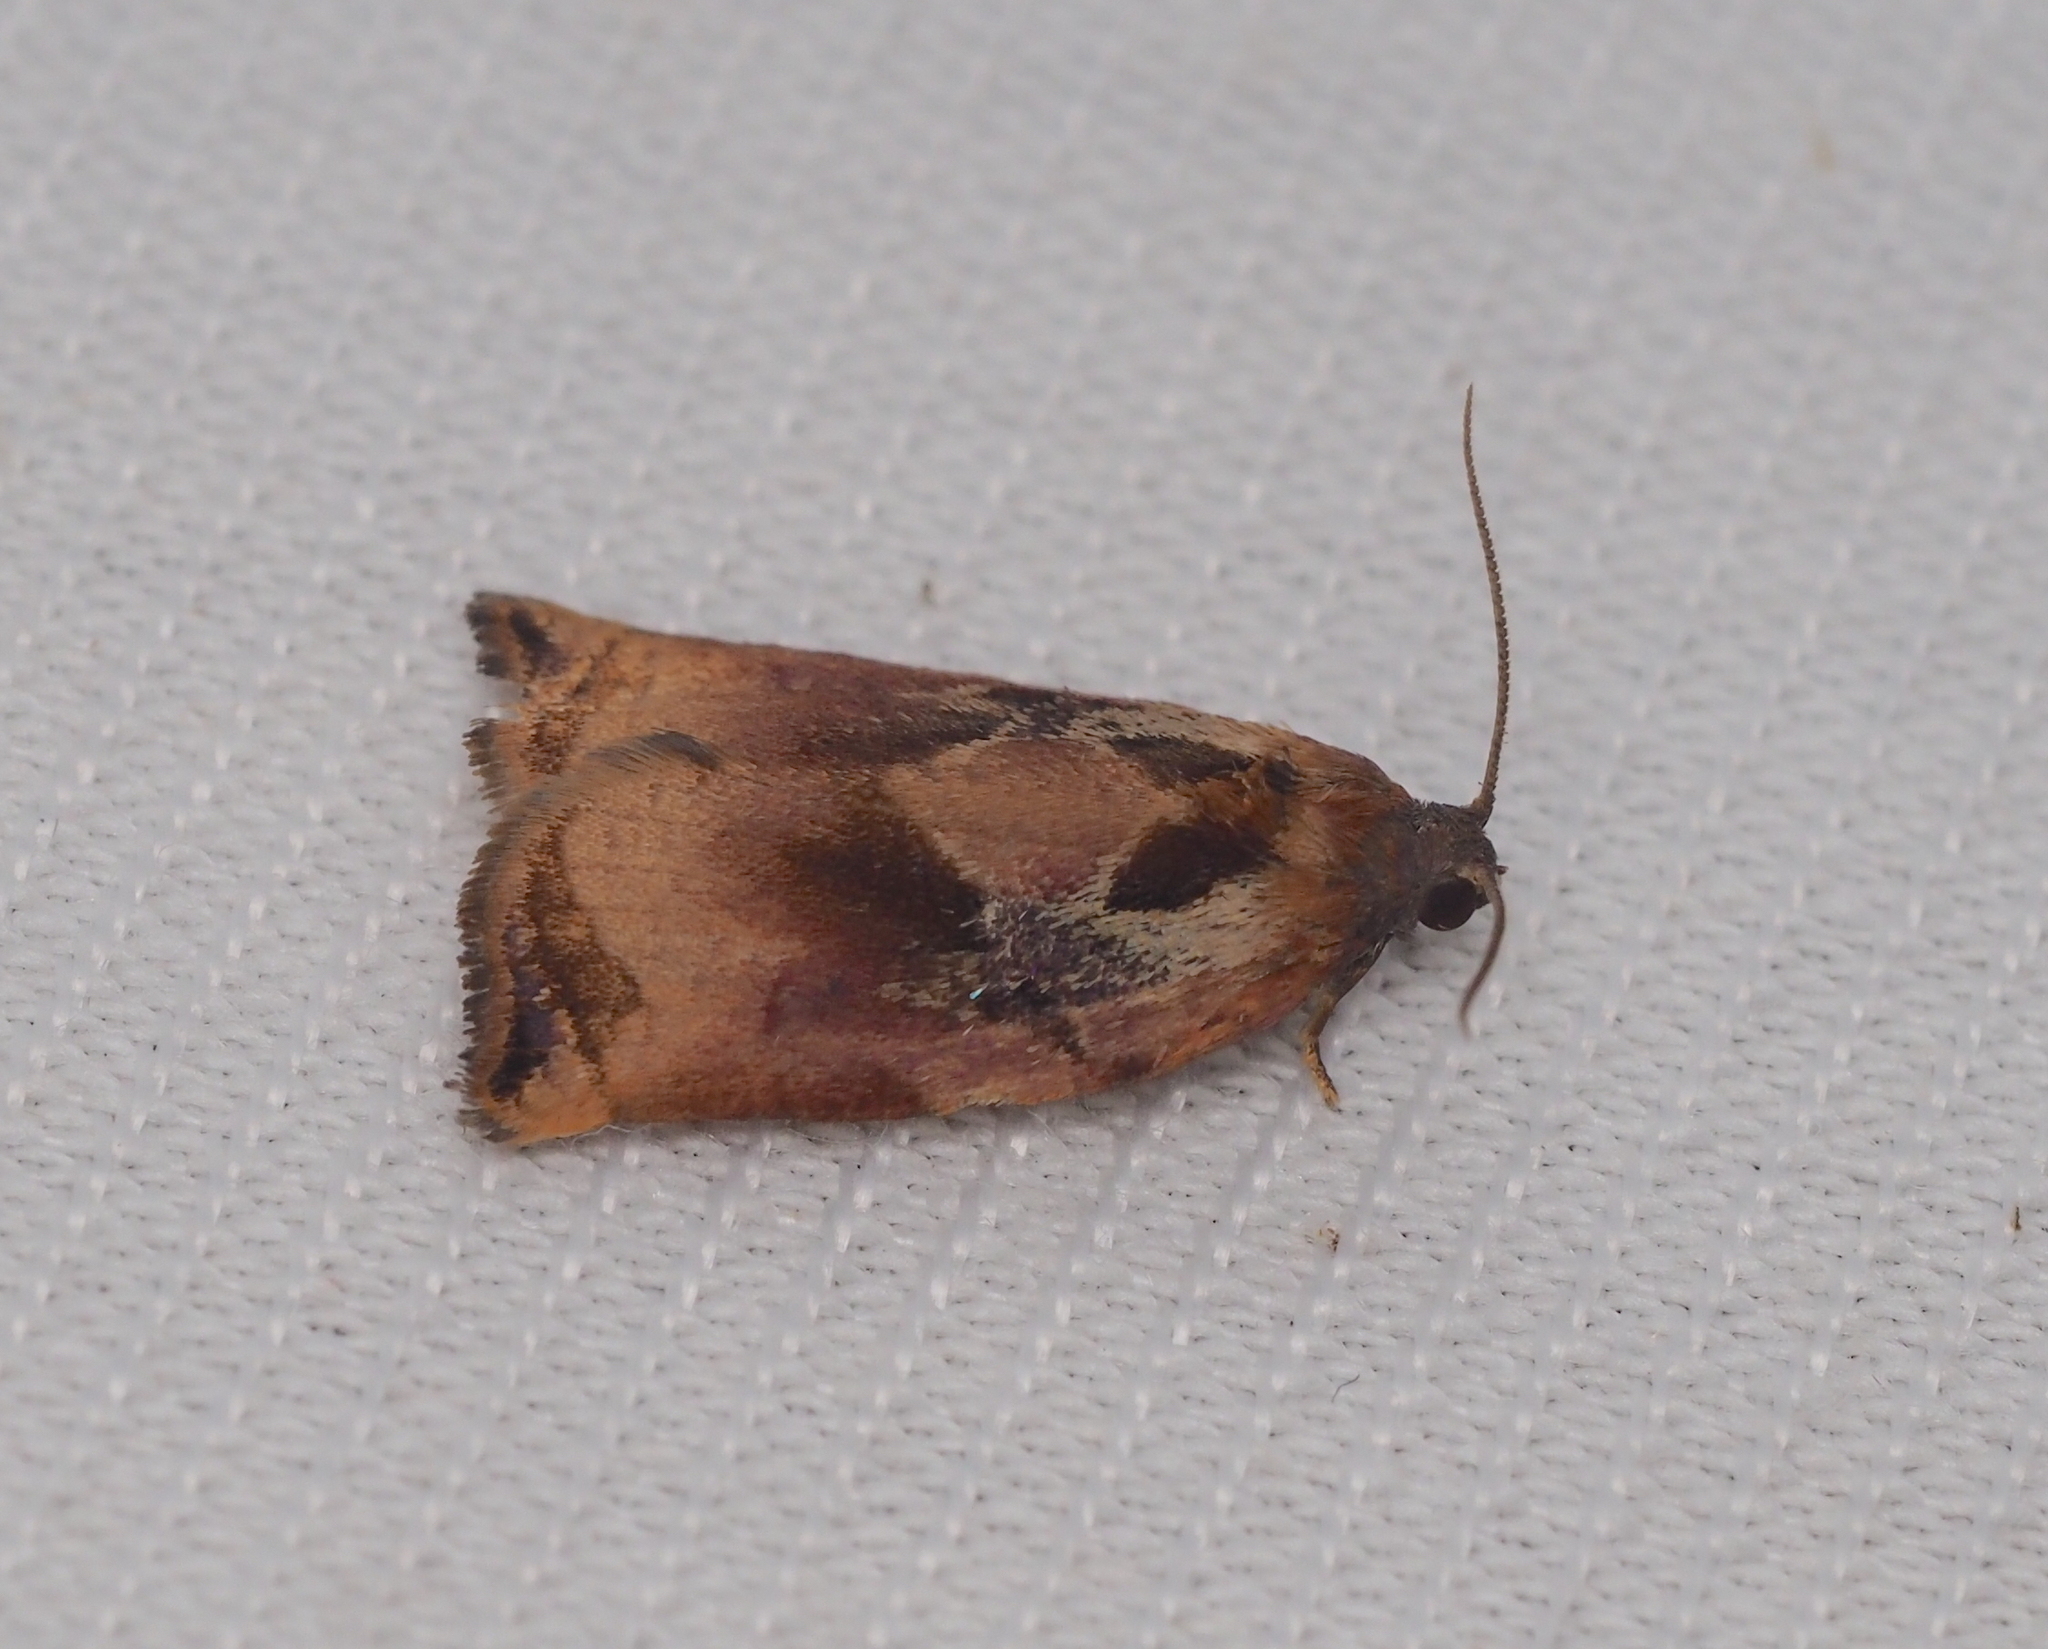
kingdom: Animalia
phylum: Arthropoda
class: Insecta
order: Lepidoptera
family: Tortricidae
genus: Archips
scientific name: Archips podana
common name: Large fruit-tree tortrix
